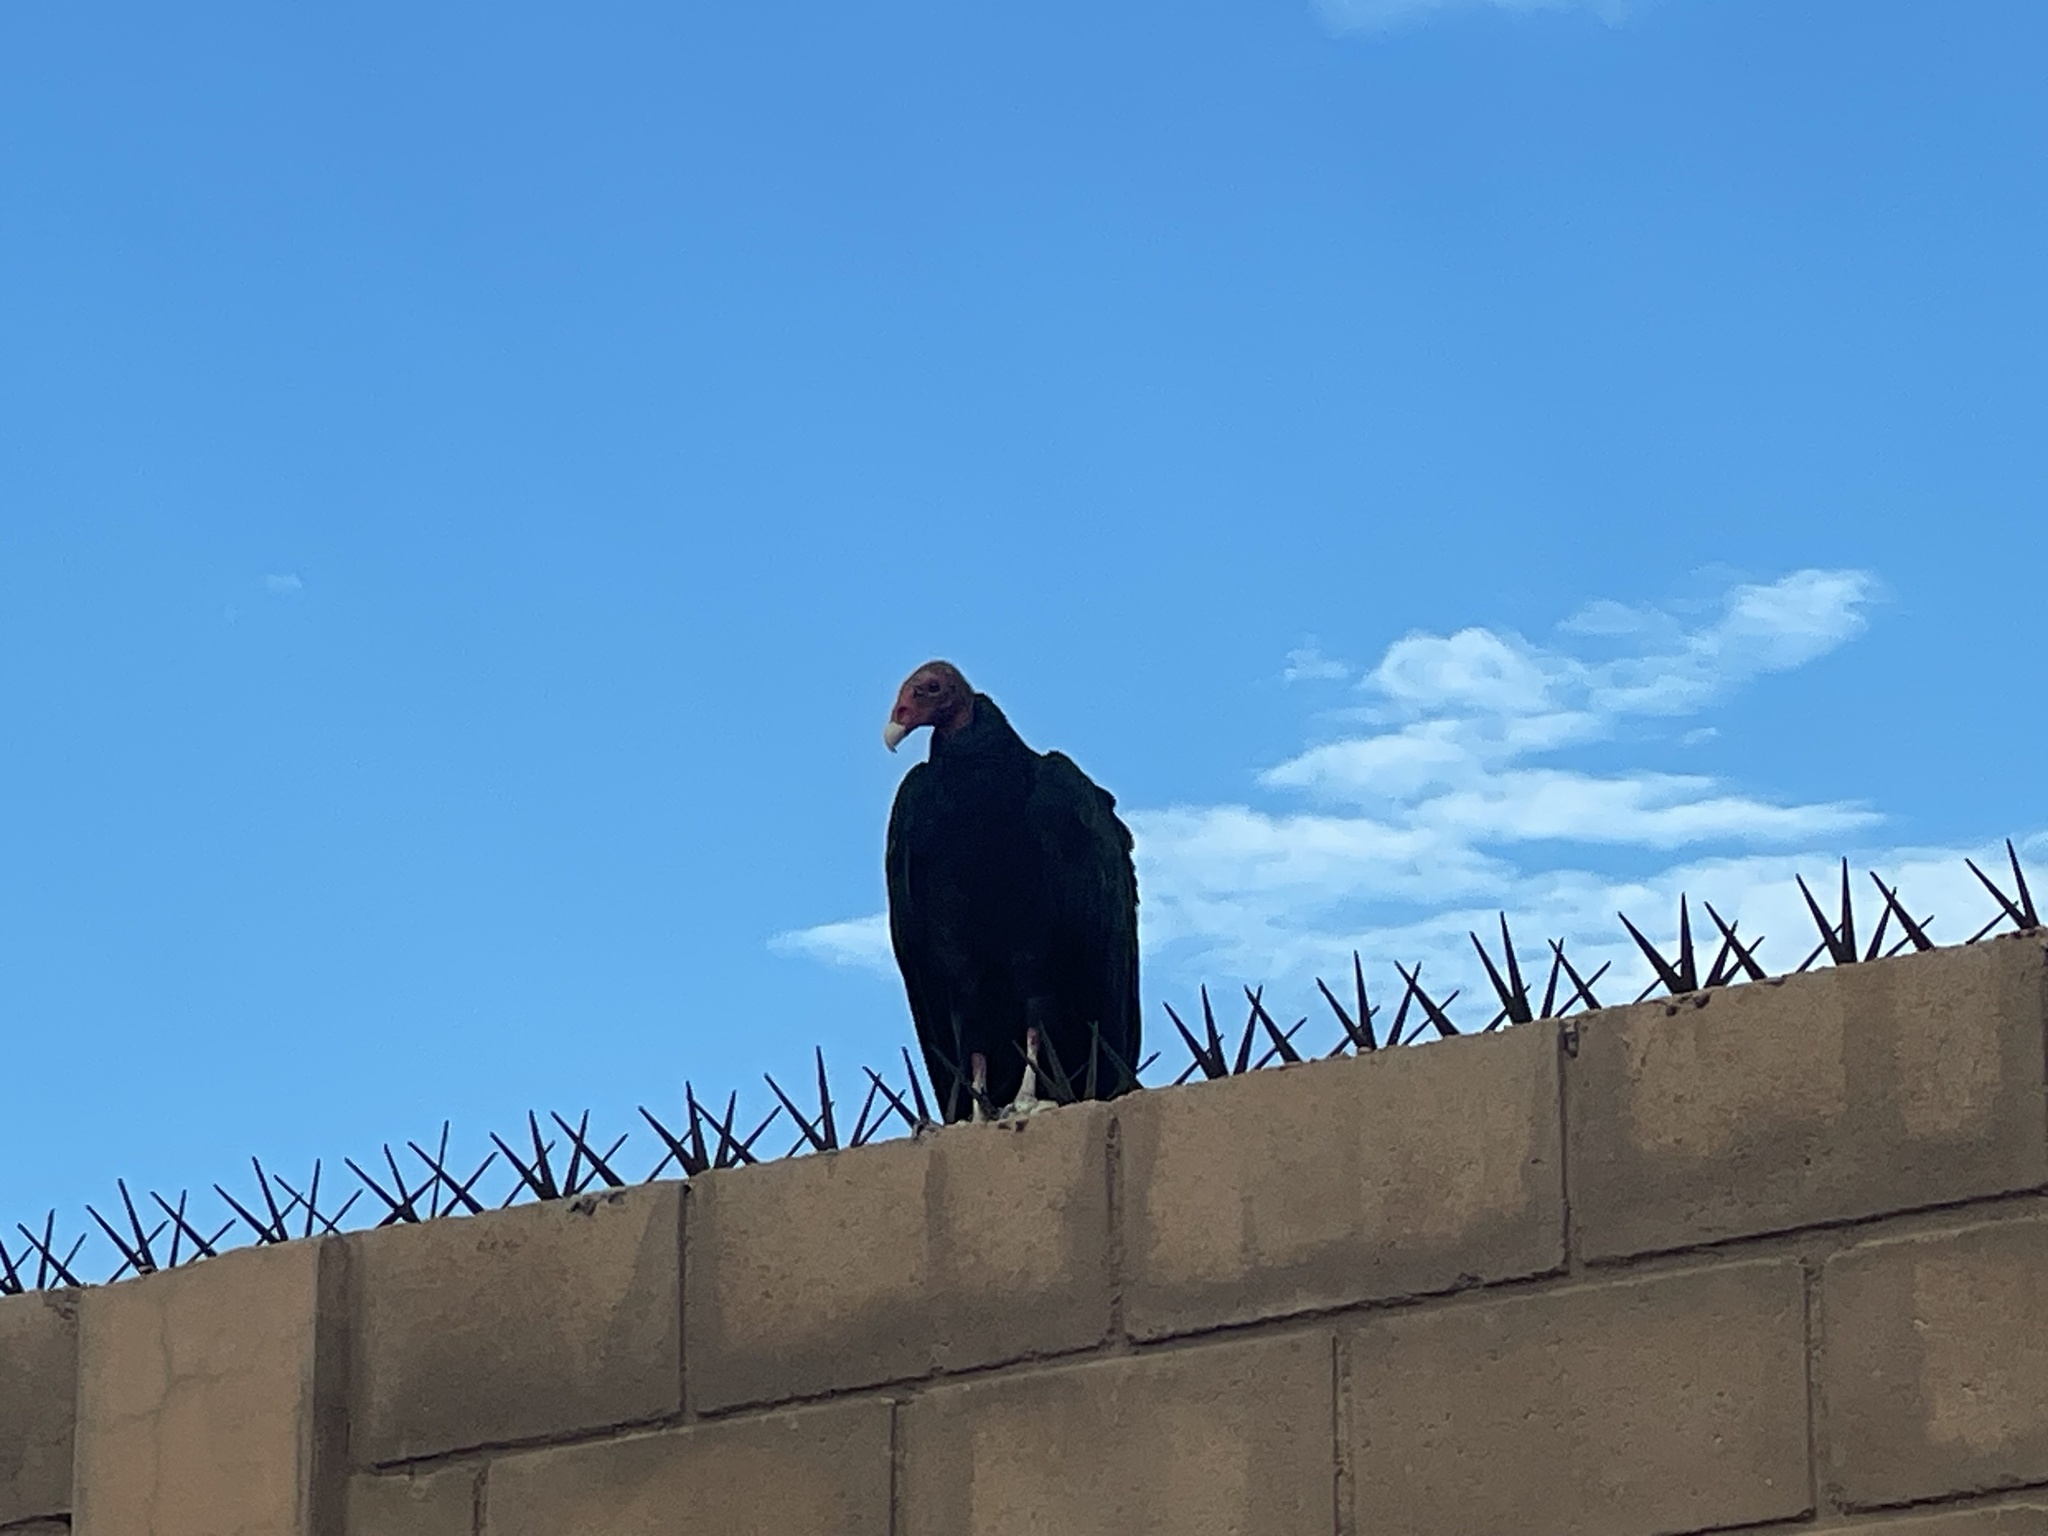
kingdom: Animalia
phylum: Chordata
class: Aves
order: Accipitriformes
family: Cathartidae
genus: Cathartes
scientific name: Cathartes aura
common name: Turkey vulture
